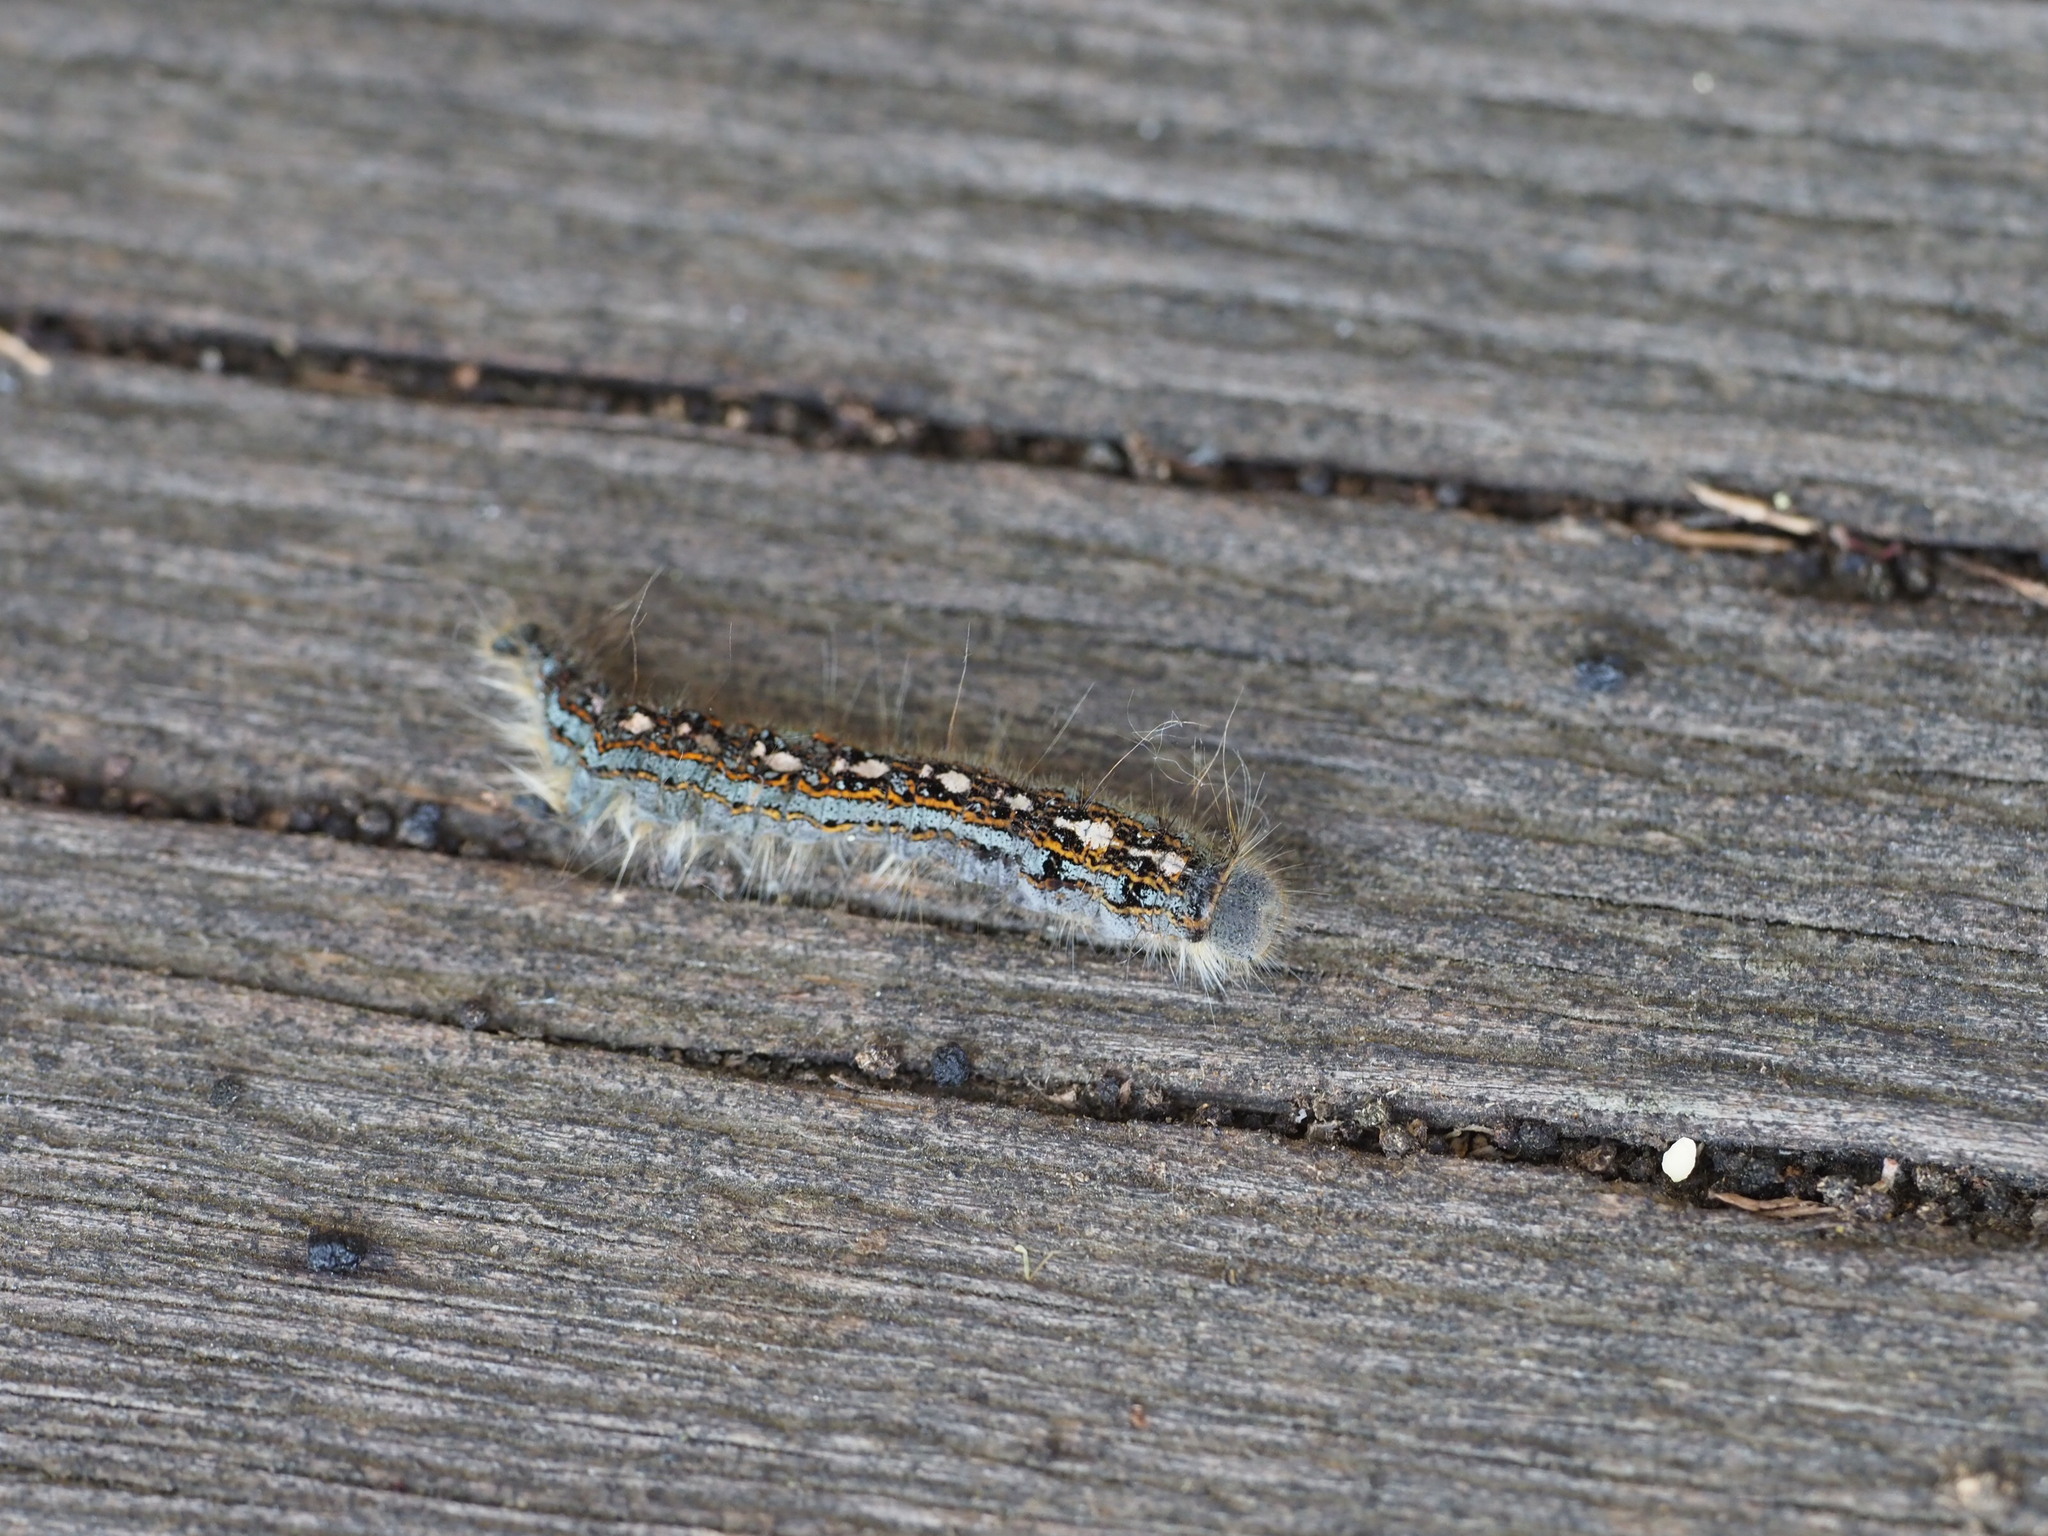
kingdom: Animalia
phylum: Arthropoda
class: Insecta
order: Lepidoptera
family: Lasiocampidae
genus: Malacosoma
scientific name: Malacosoma disstria
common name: Forest tent caterpillar
